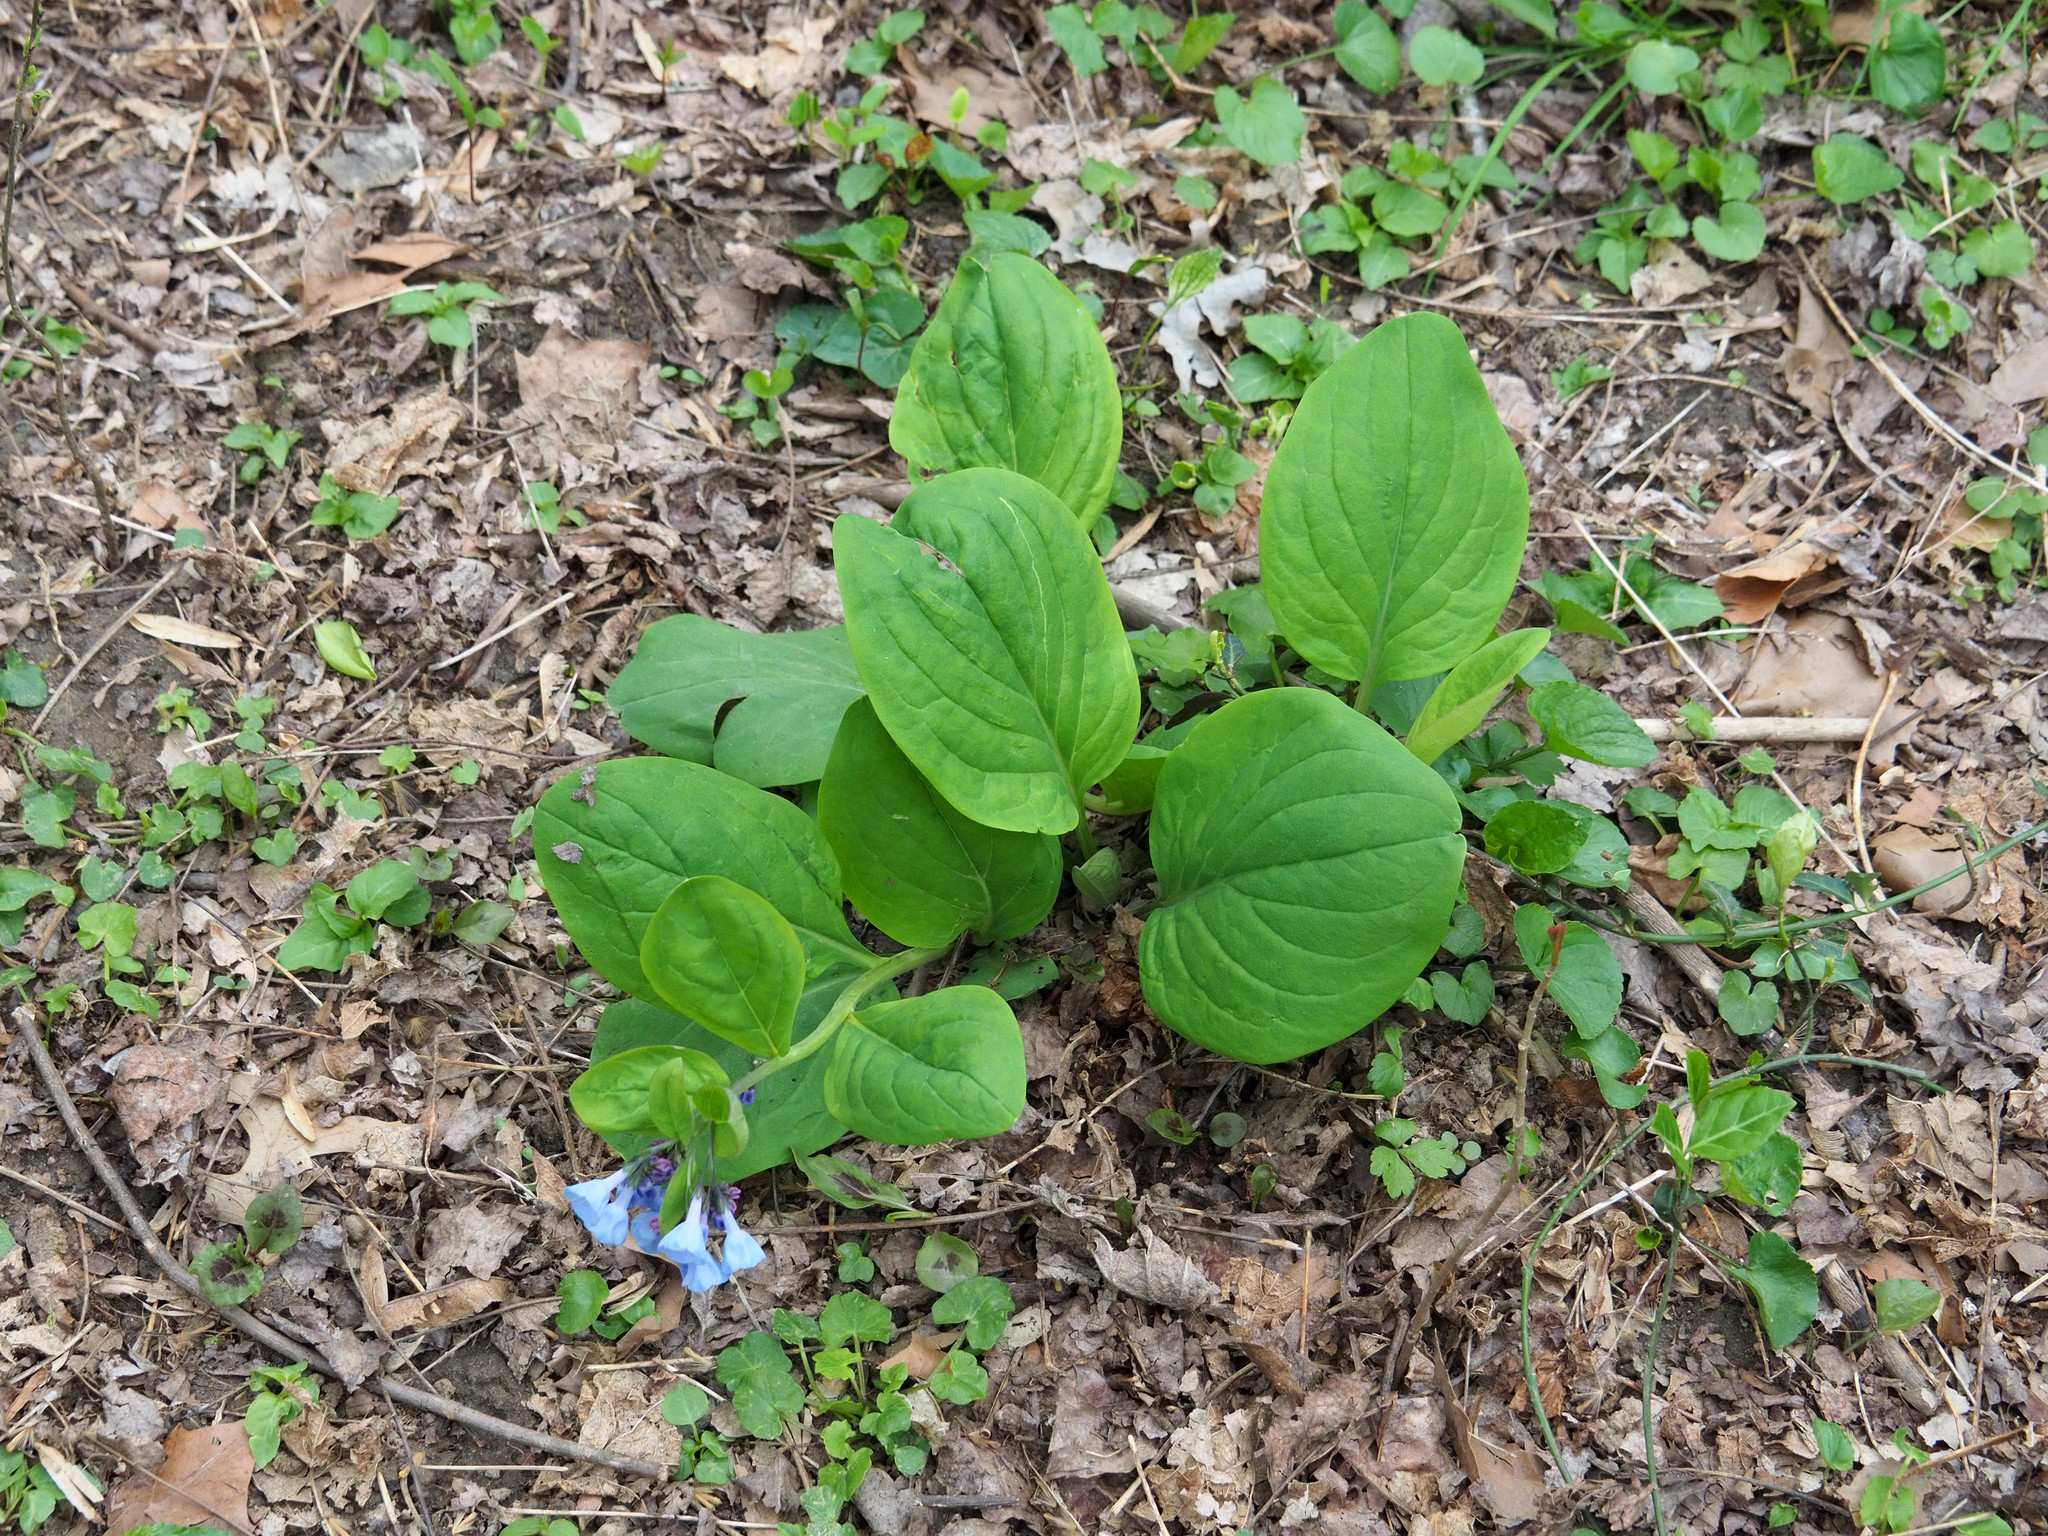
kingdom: Plantae
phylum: Tracheophyta
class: Magnoliopsida
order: Boraginales
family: Boraginaceae
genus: Mertensia
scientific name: Mertensia virginica
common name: Virginia bluebells
